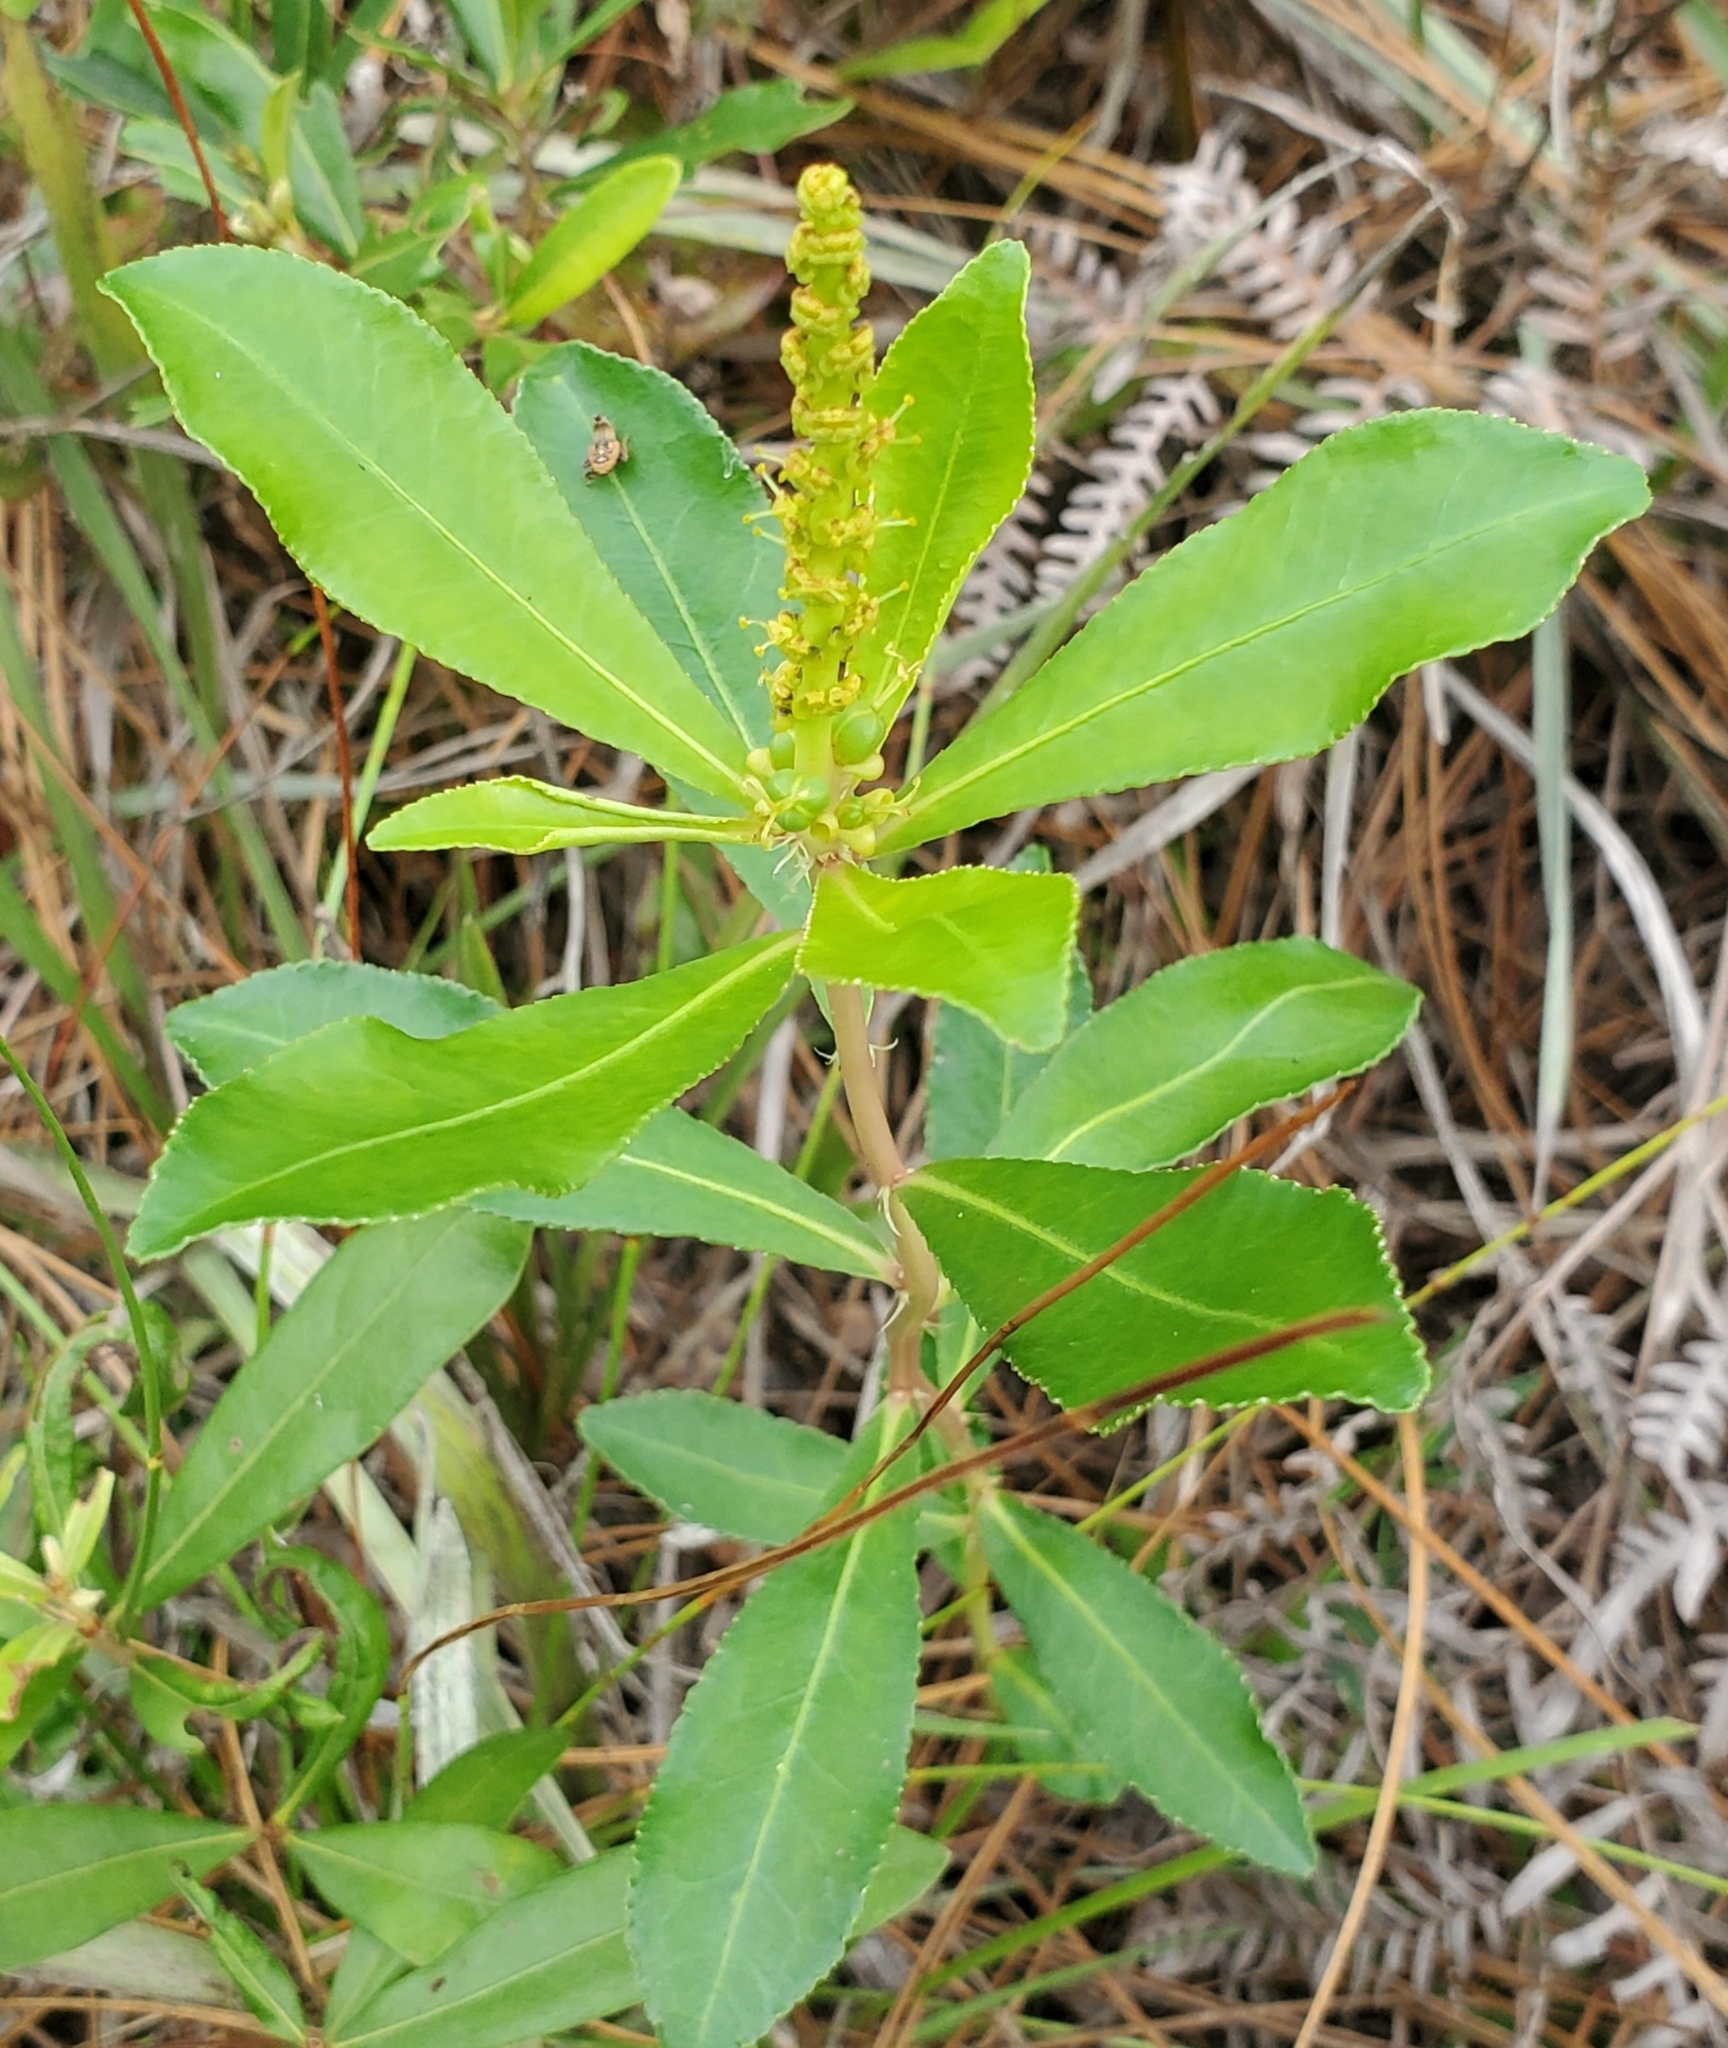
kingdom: Plantae
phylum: Tracheophyta
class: Magnoliopsida
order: Malpighiales
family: Euphorbiaceae
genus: Stillingia
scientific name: Stillingia sylvatica
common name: Queen's-delight
